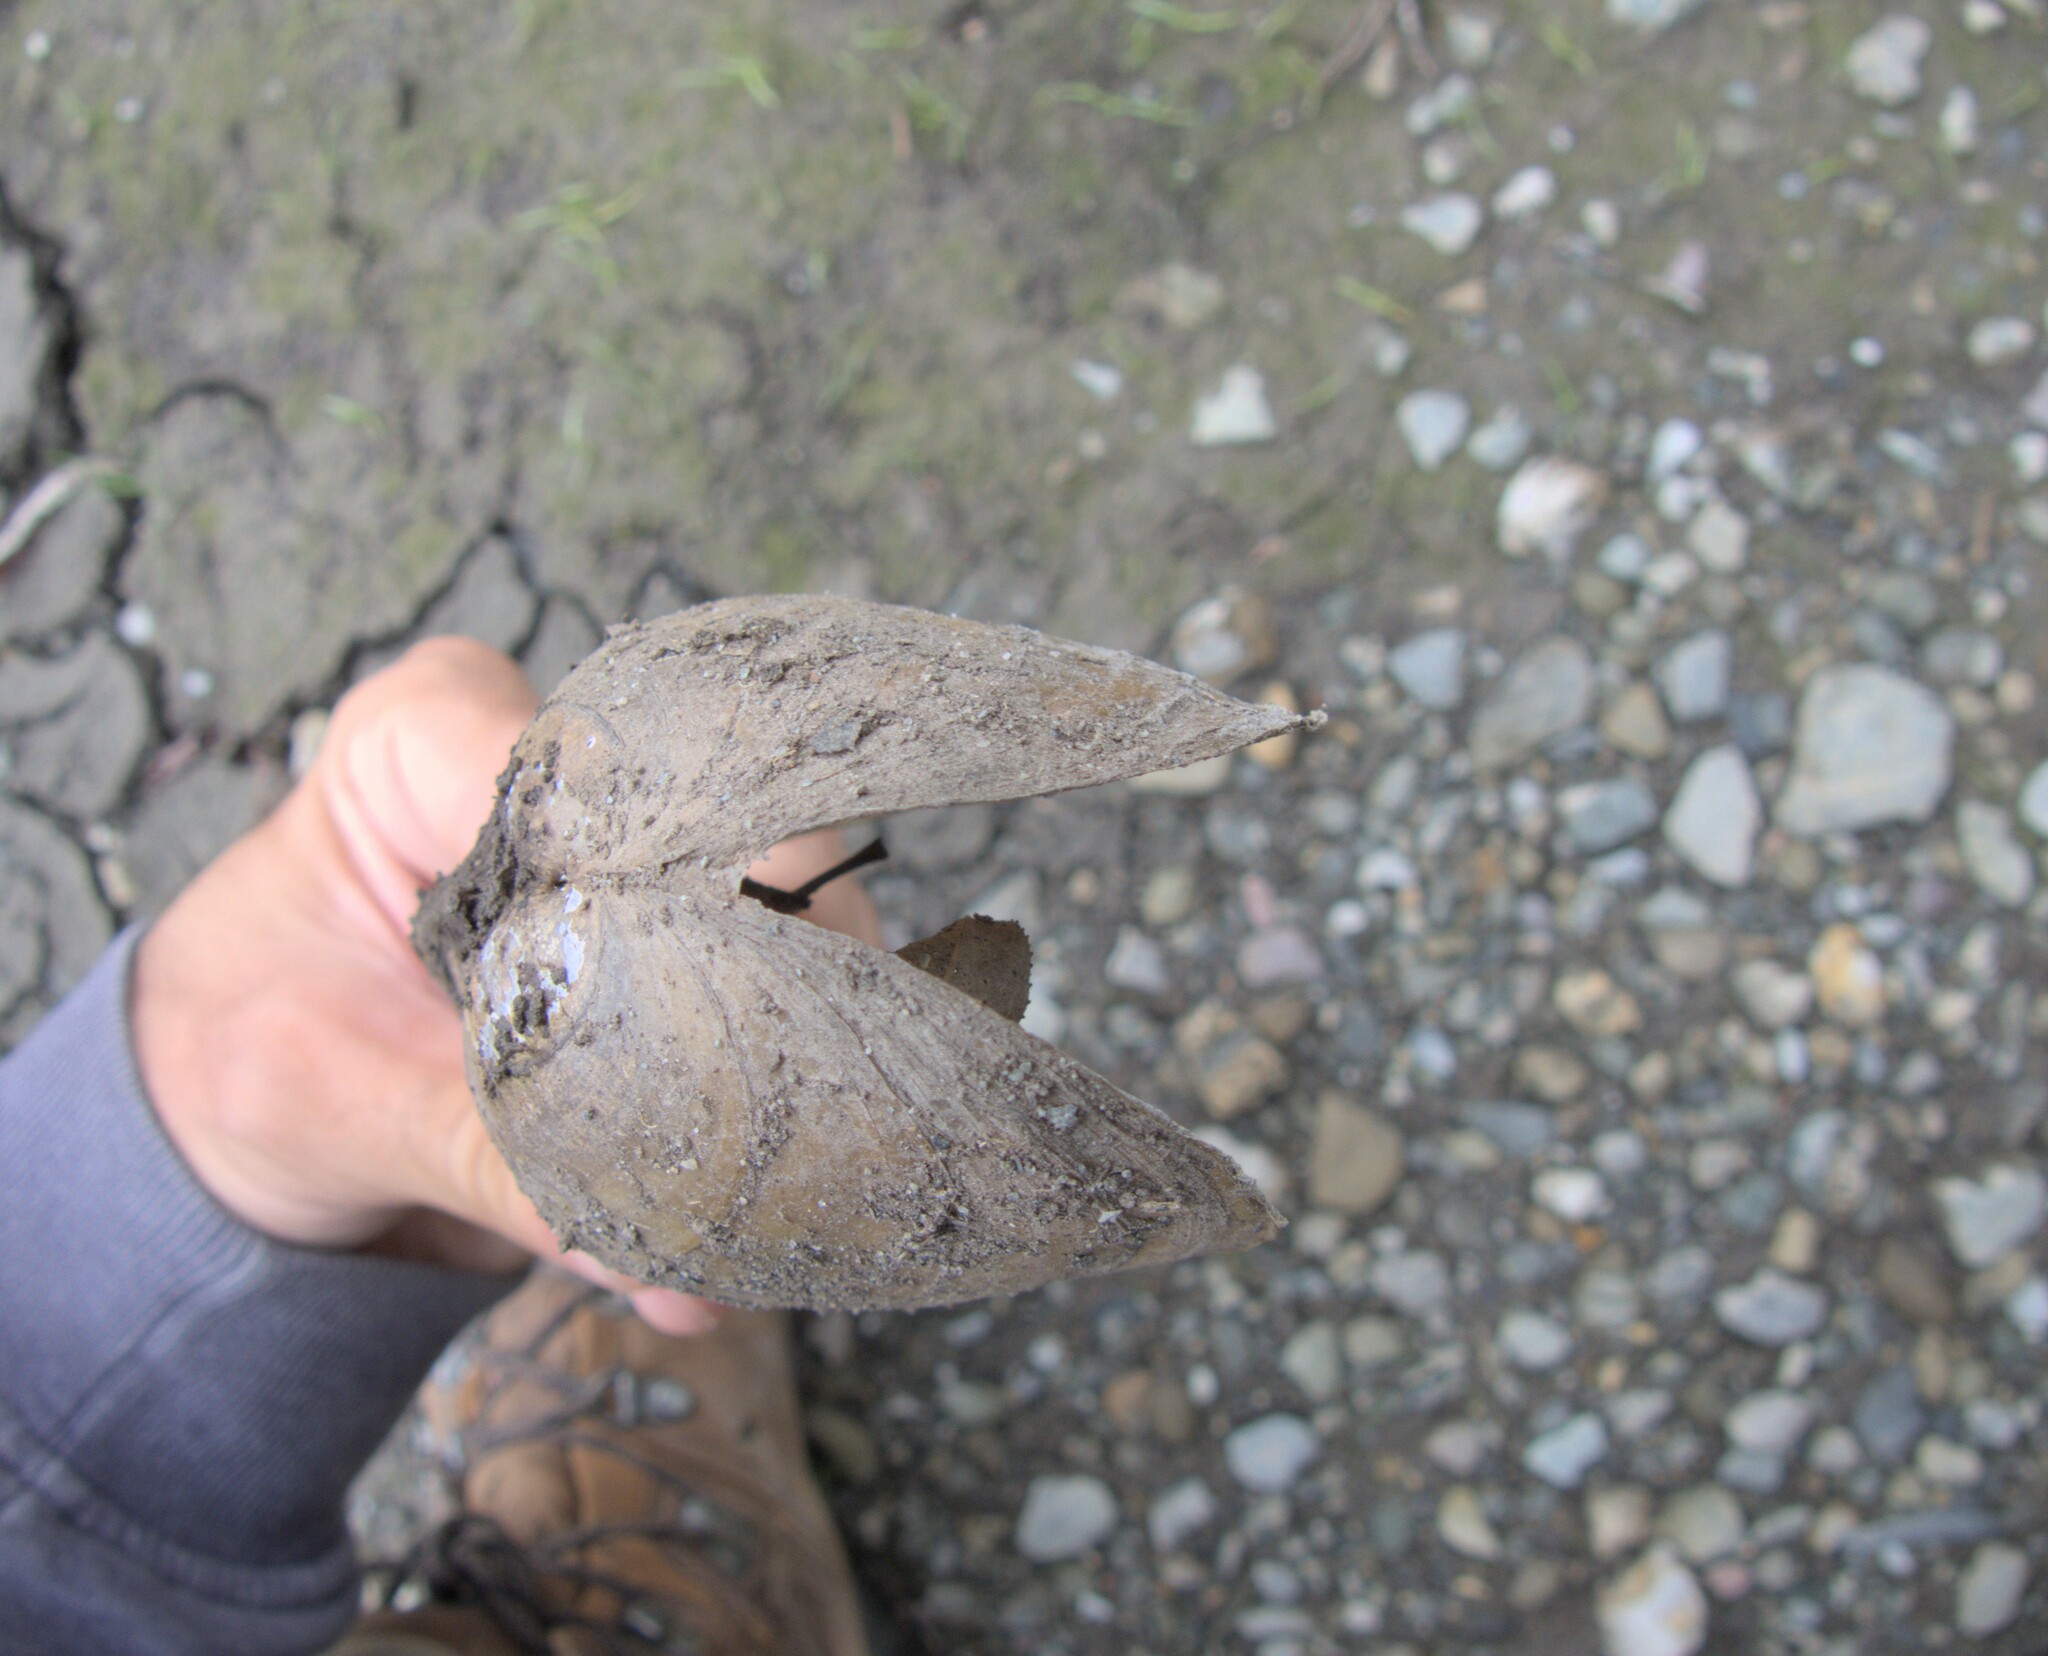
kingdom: Animalia
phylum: Mollusca
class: Bivalvia
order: Unionida
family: Unionidae
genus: Pyganodon
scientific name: Pyganodon cataracta
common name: Eastern floater
